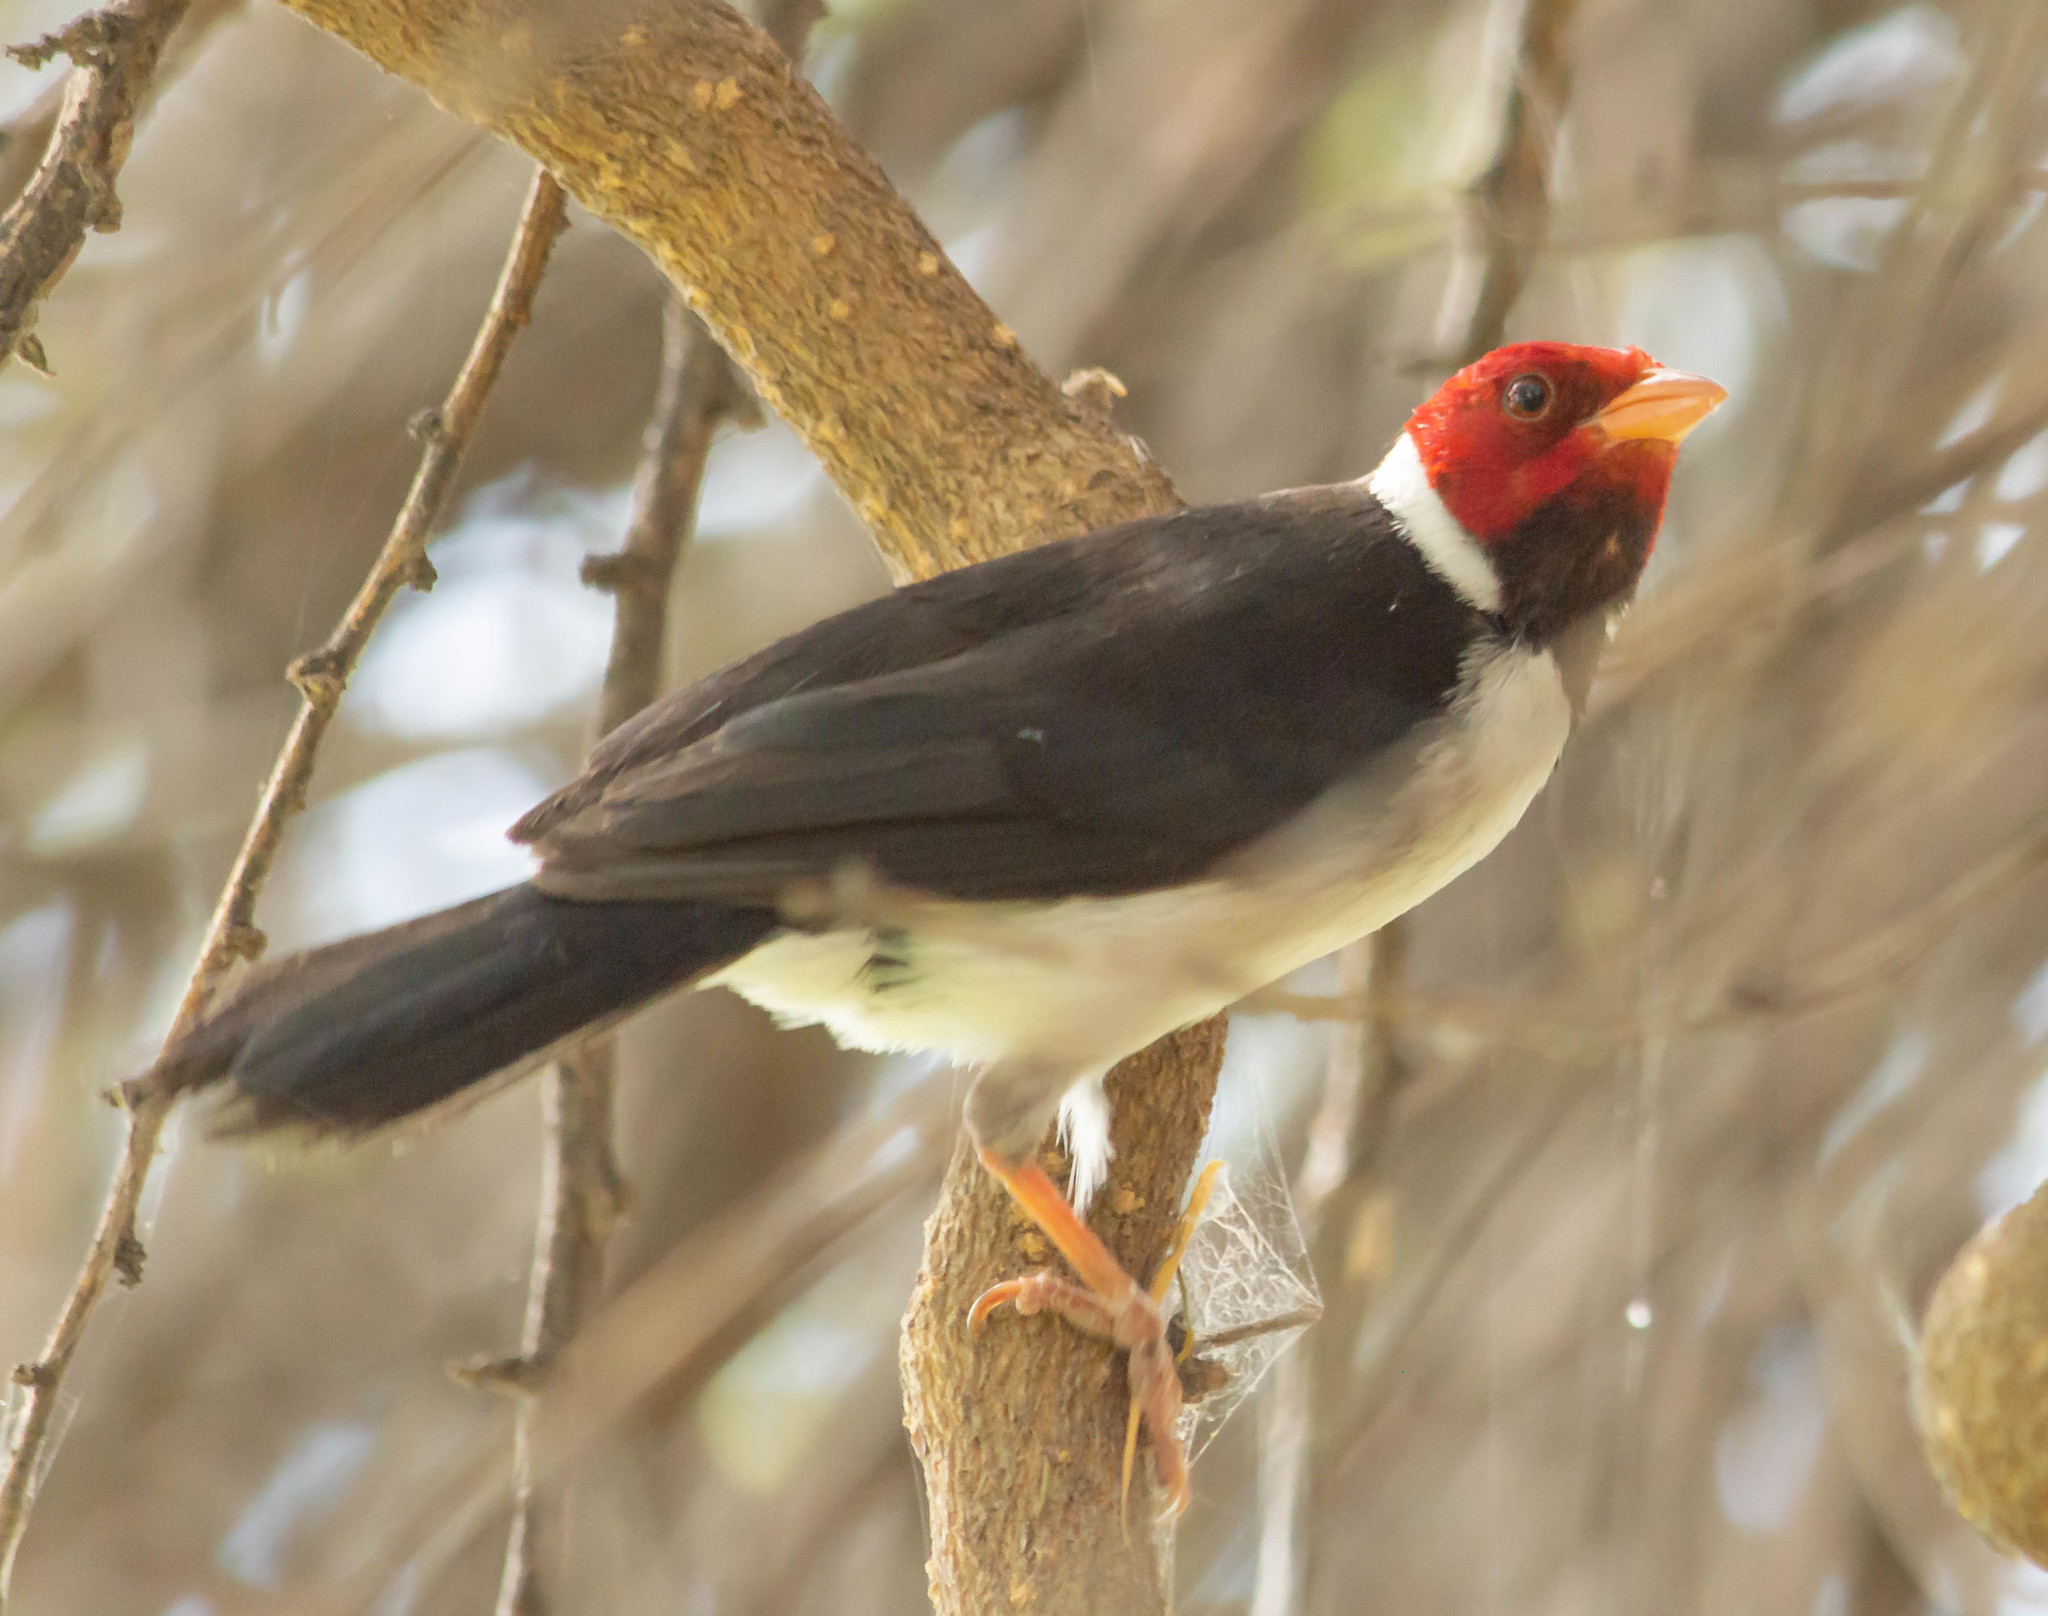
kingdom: Animalia
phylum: Chordata
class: Aves
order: Passeriformes
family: Thraupidae
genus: Paroaria
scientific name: Paroaria capitata
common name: Yellow-billed cardinal
